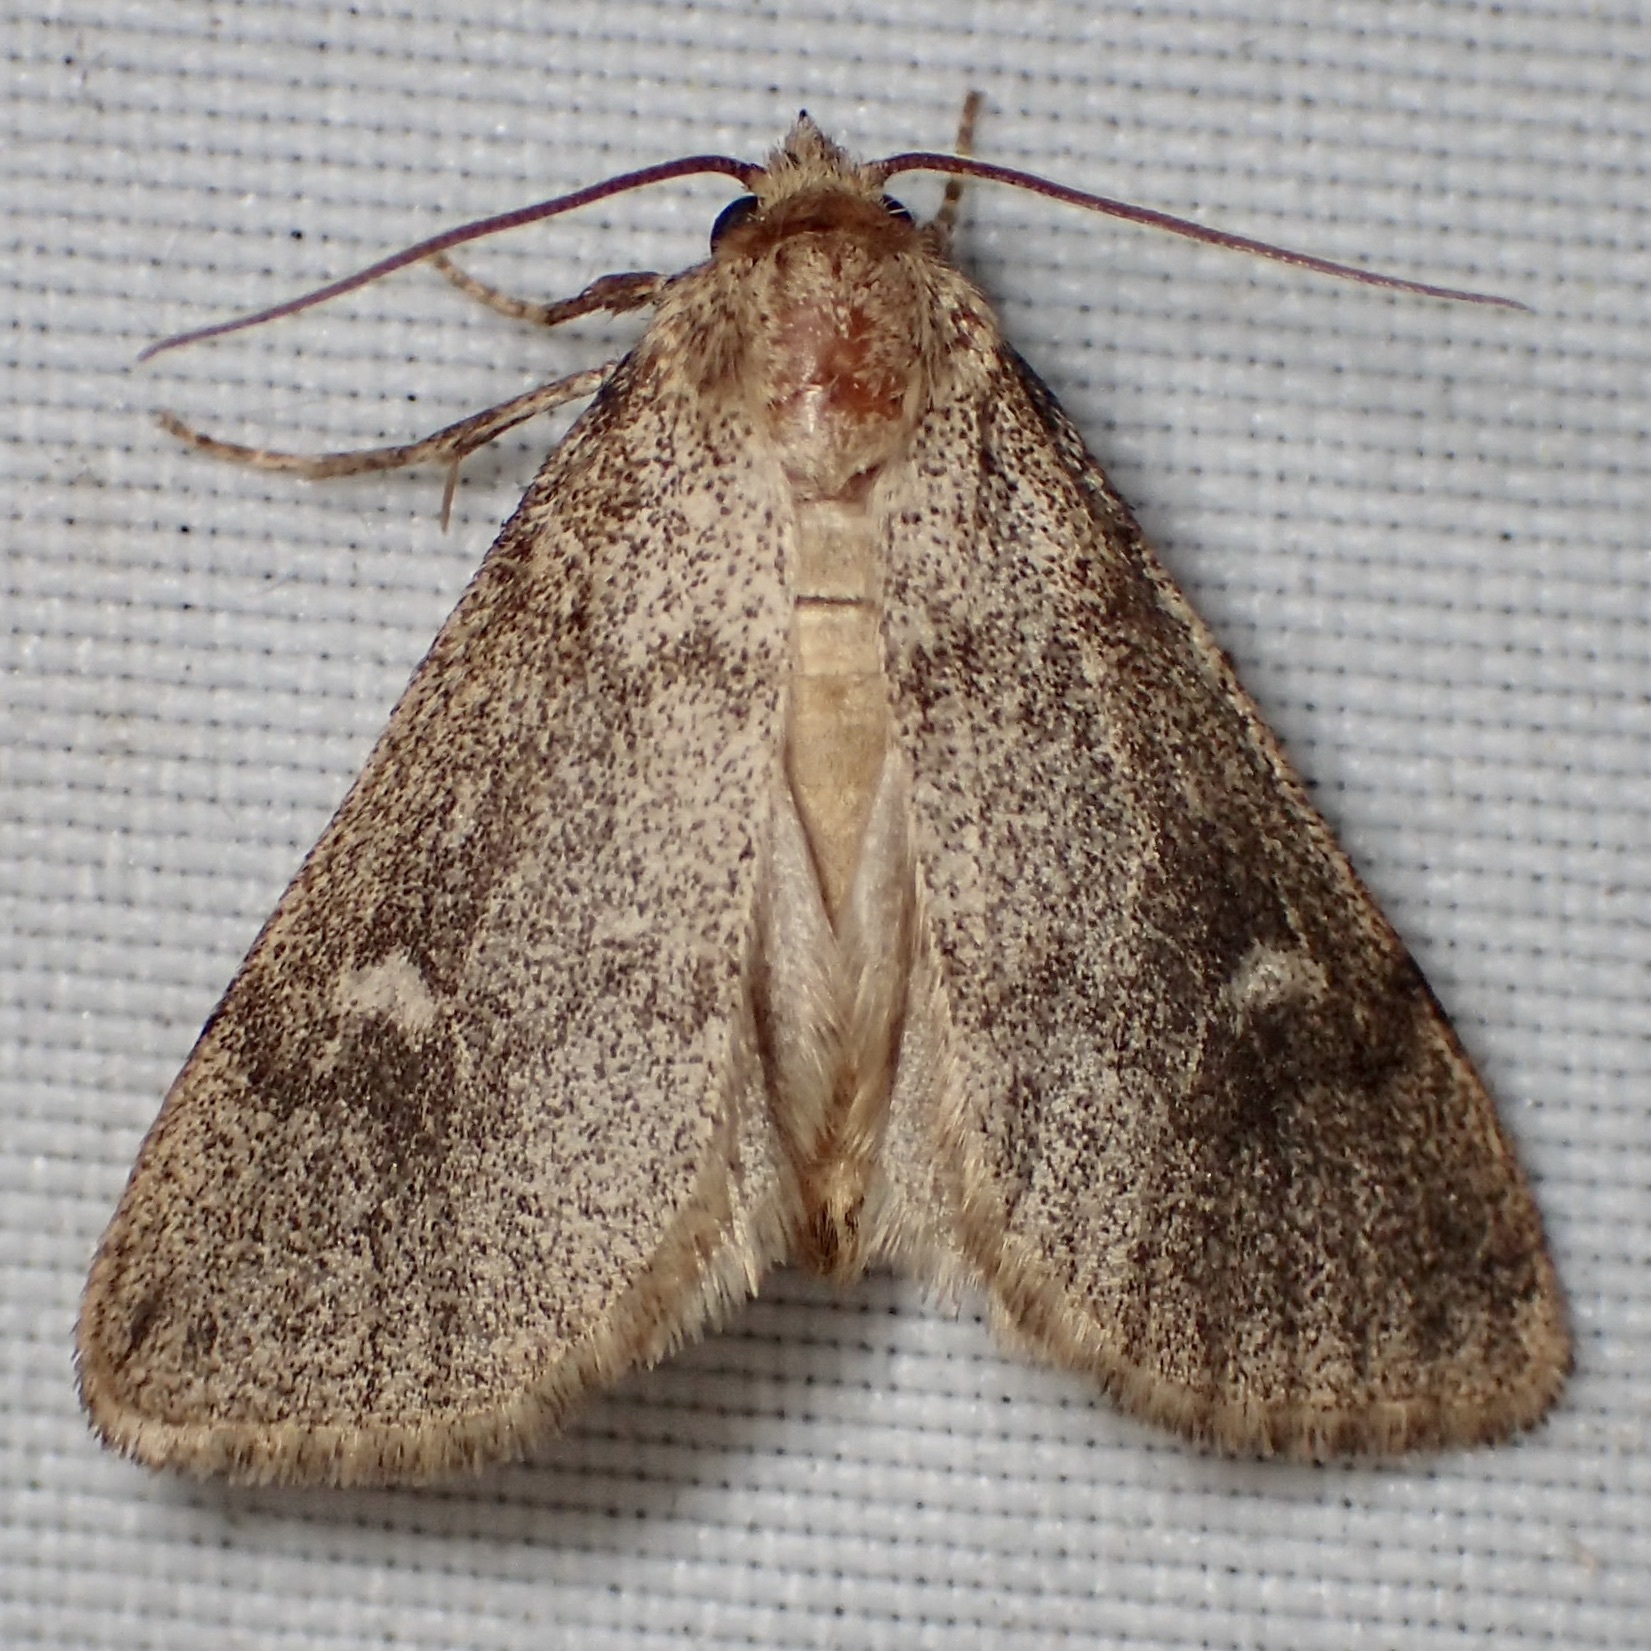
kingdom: Animalia
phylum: Arthropoda
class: Insecta
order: Lepidoptera
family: Noctuidae
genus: Narthecophora
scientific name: Narthecophora pulverea
